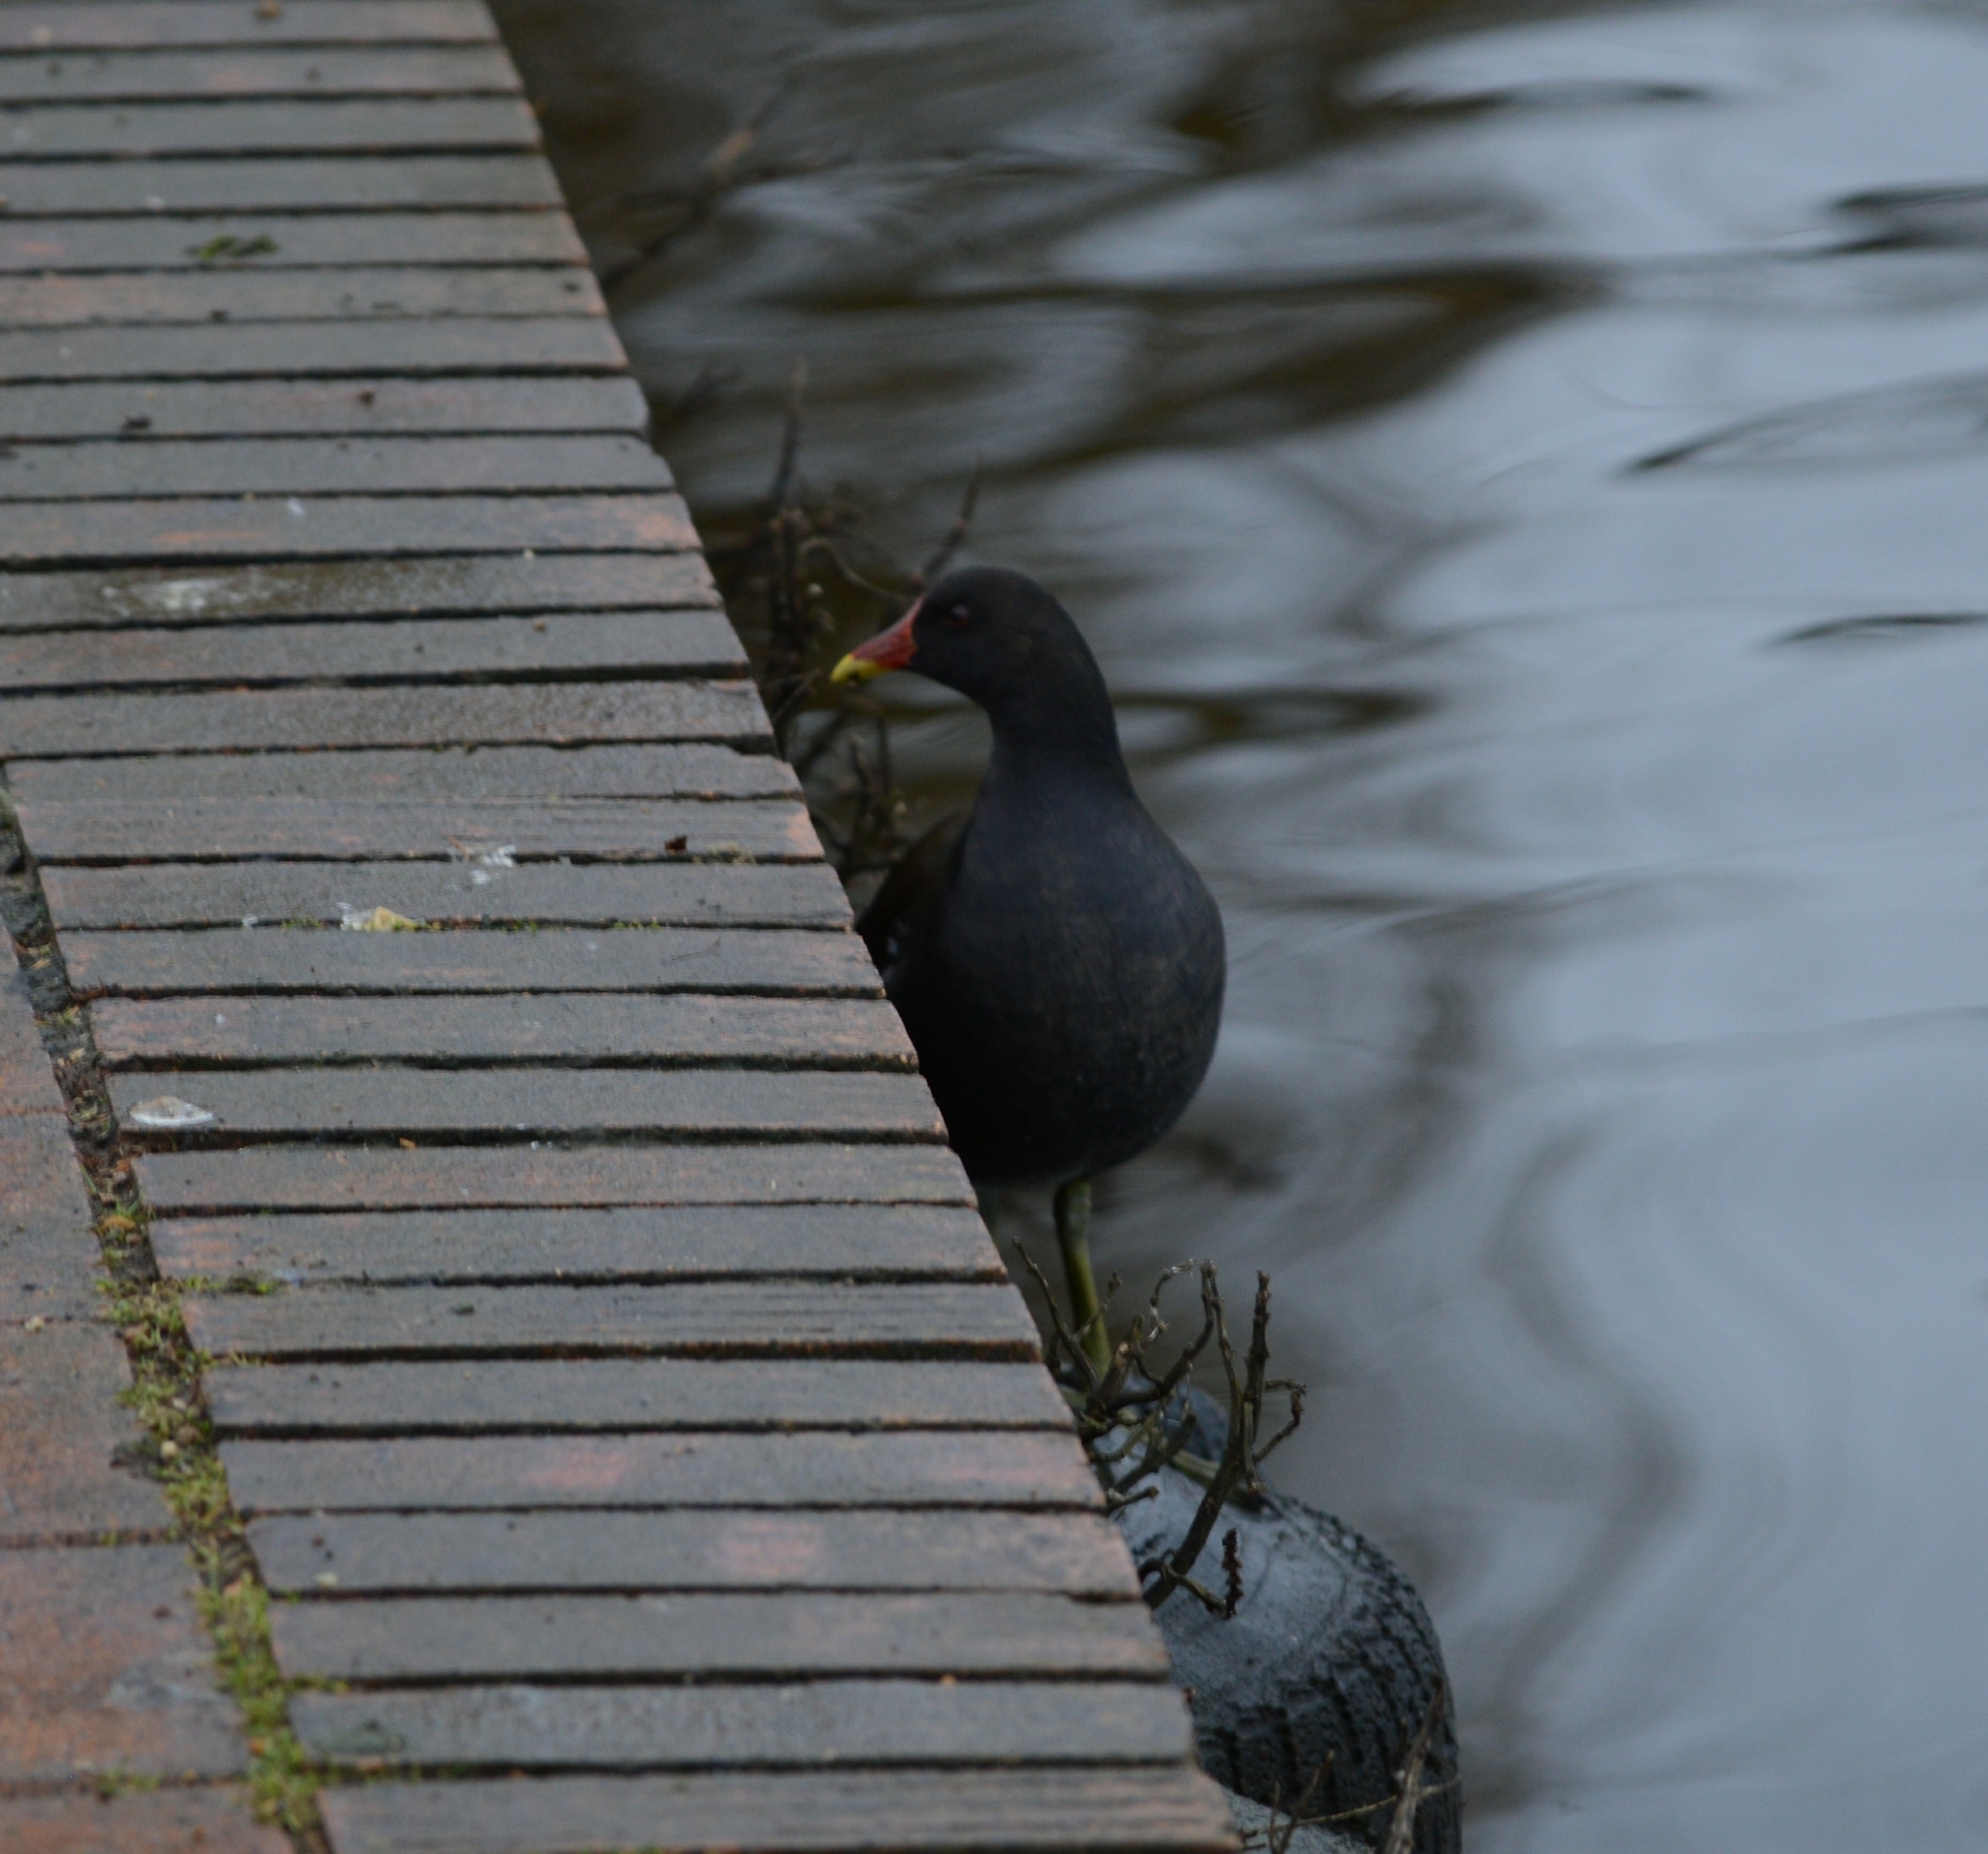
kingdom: Animalia
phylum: Chordata
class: Aves
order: Gruiformes
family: Rallidae
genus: Gallinula
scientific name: Gallinula chloropus
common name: Common moorhen
